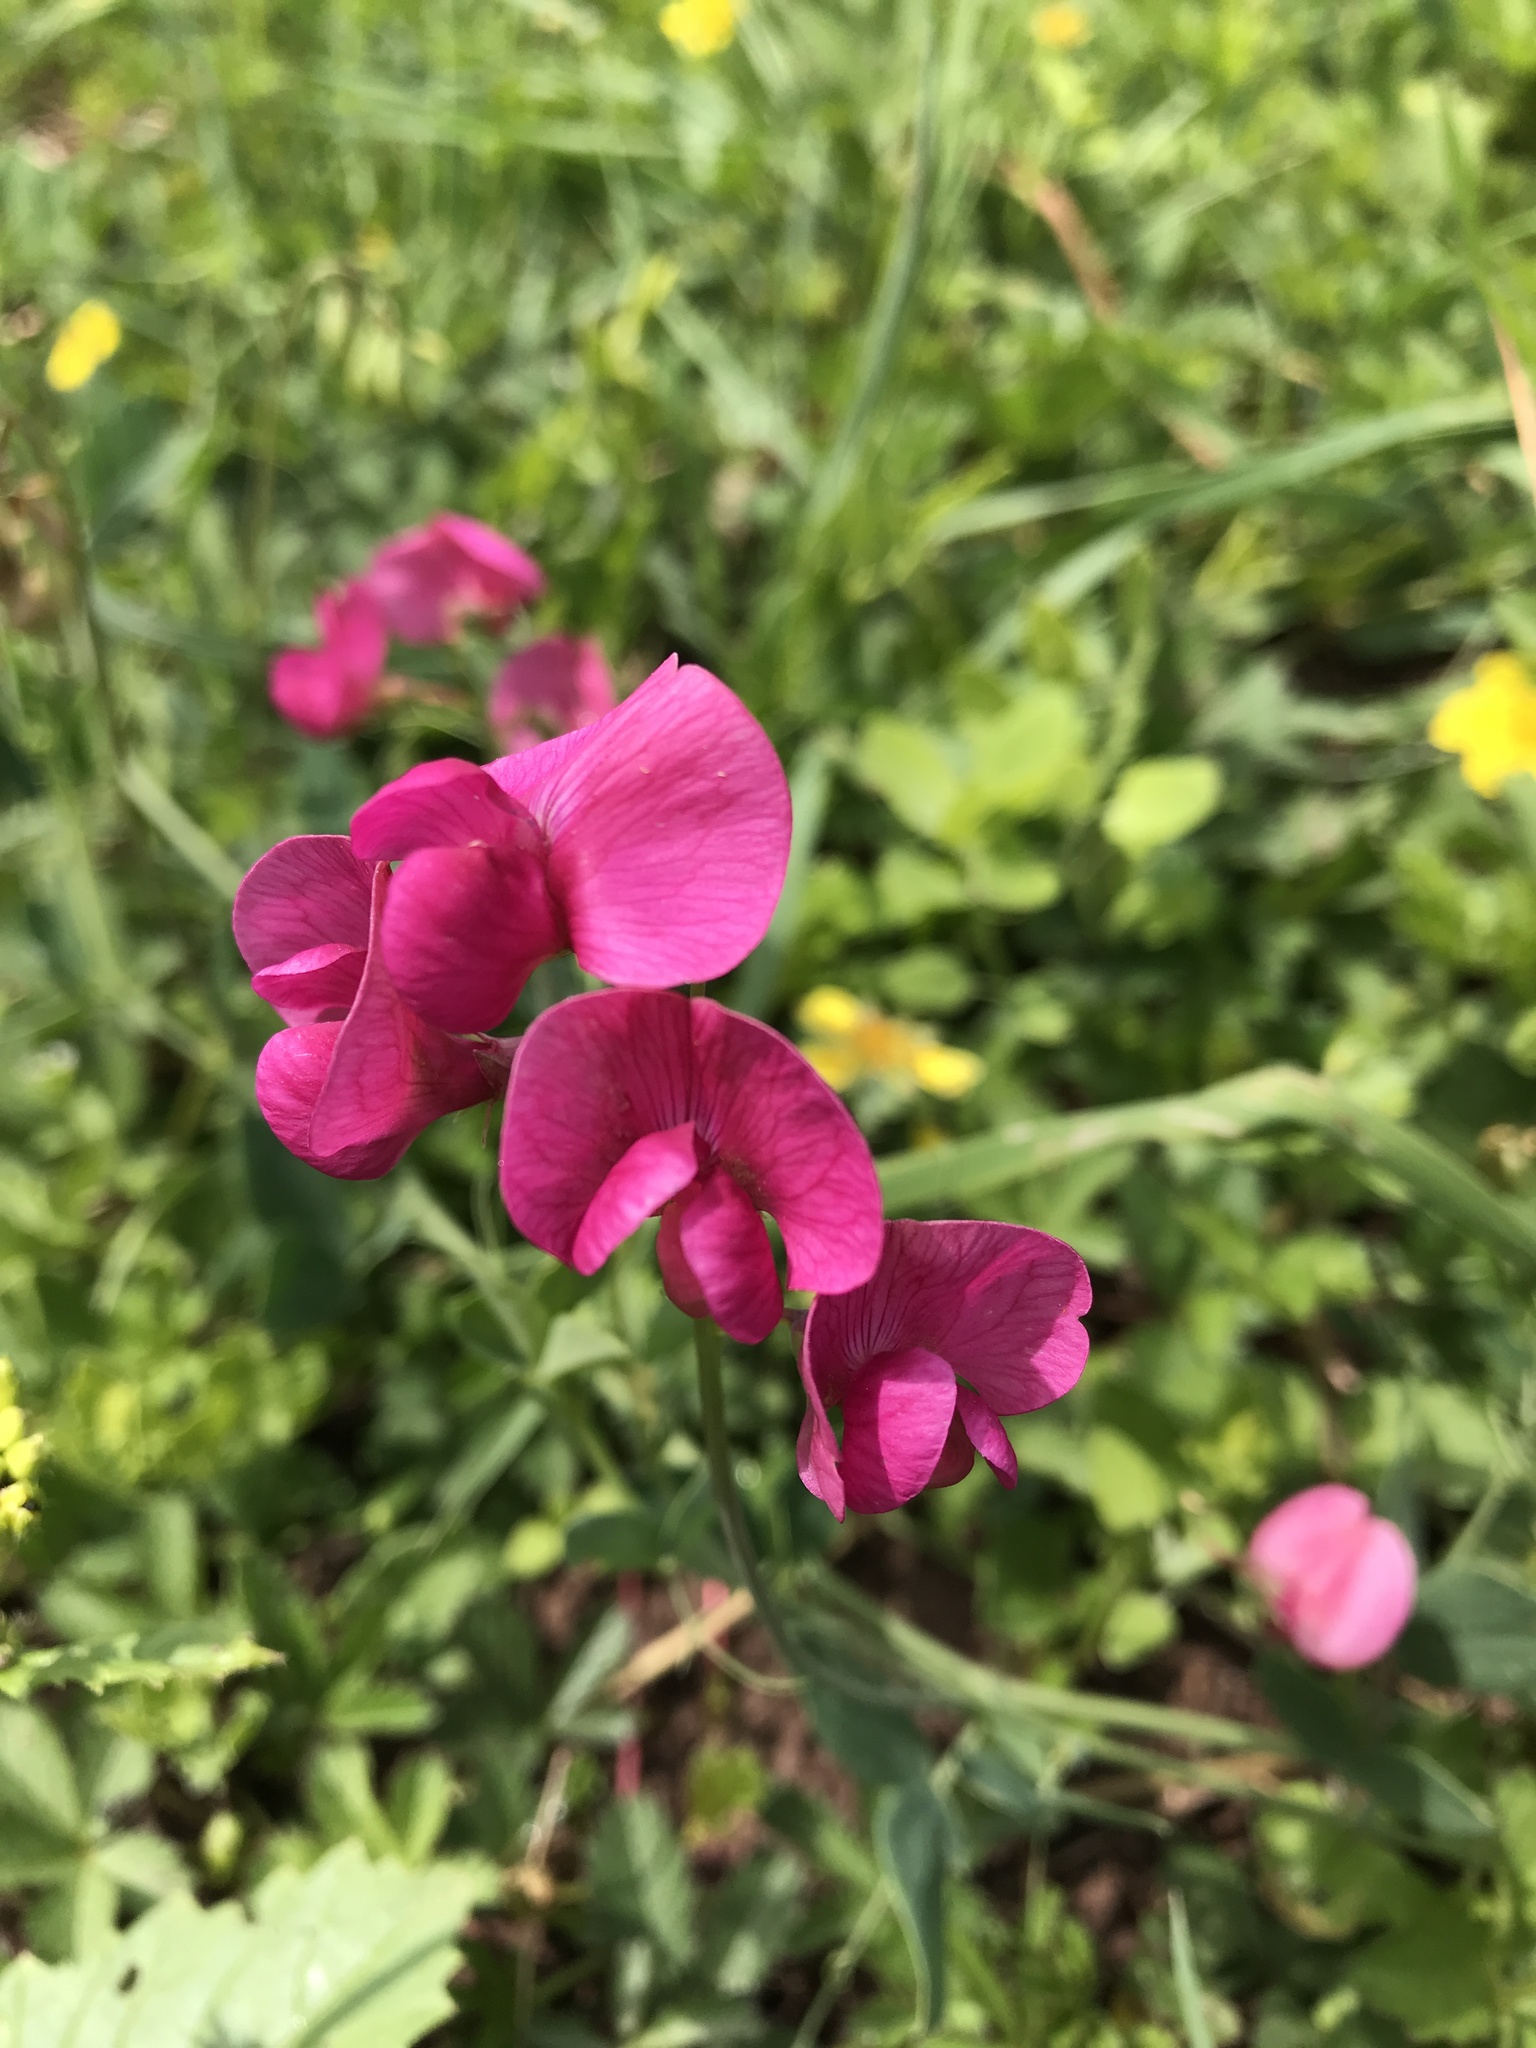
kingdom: Plantae
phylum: Tracheophyta
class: Magnoliopsida
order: Fabales
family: Fabaceae
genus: Lathyrus
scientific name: Lathyrus tuberosus
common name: Tuberous pea
